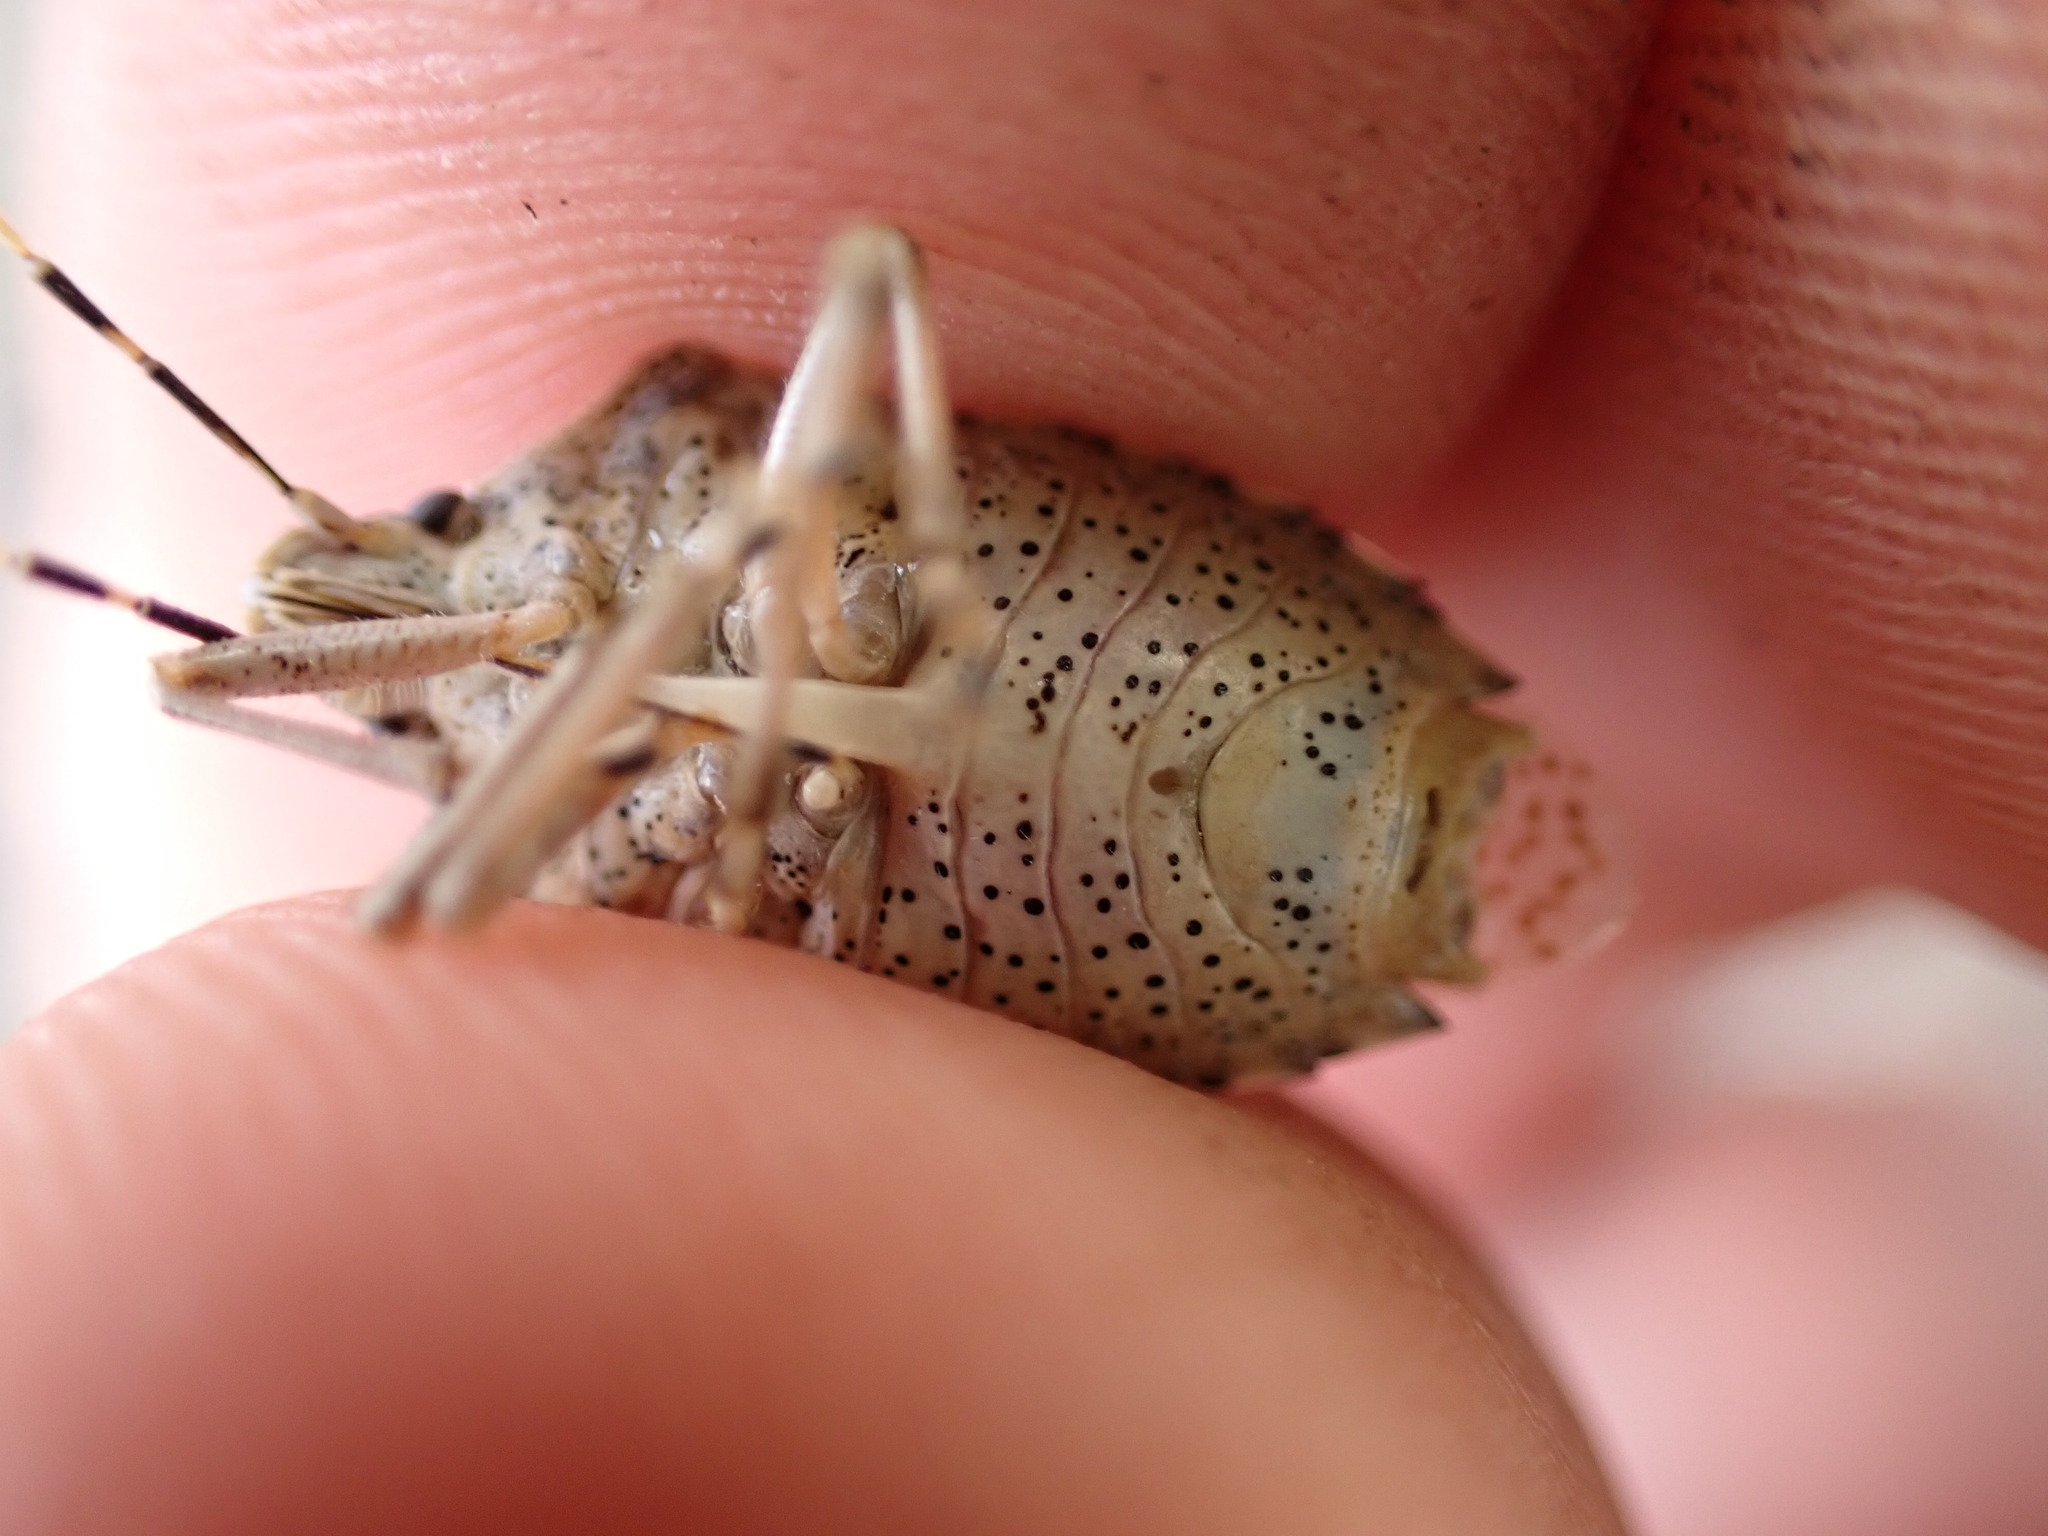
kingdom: Animalia
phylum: Arthropoda
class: Insecta
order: Hemiptera
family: Pentatomidae
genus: Rhaphigaster
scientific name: Rhaphigaster nebulosa
